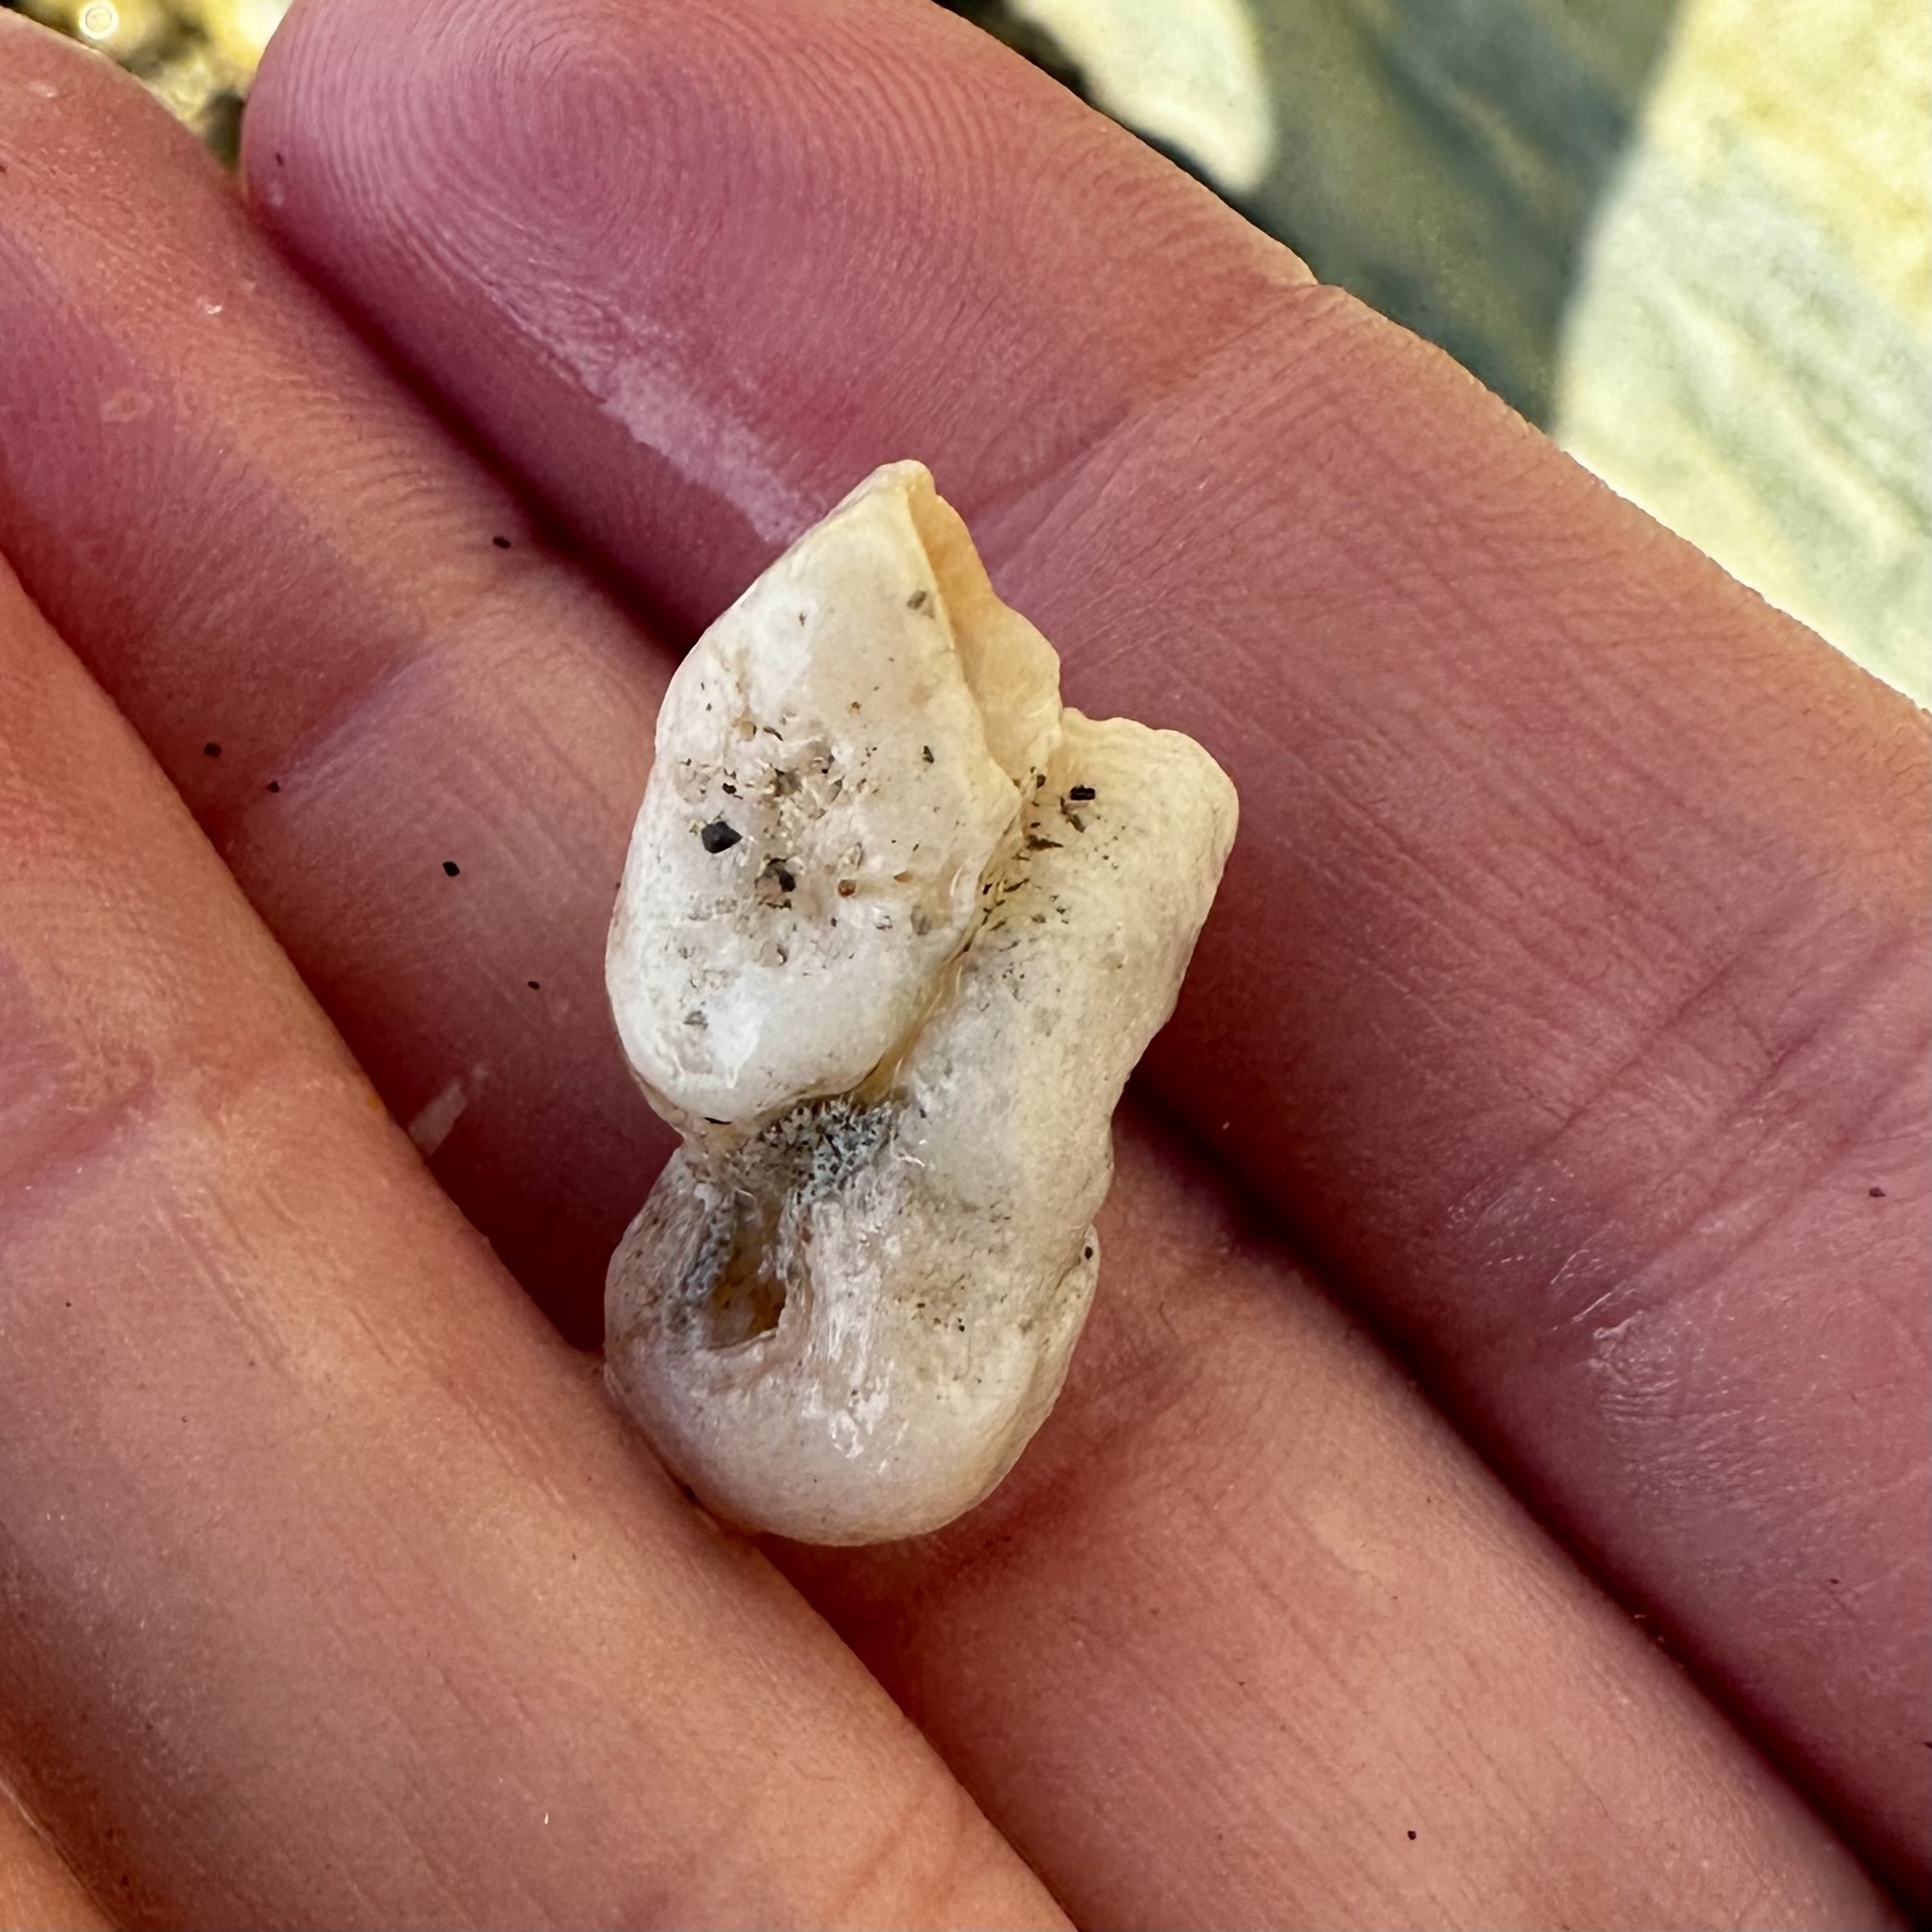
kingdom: Animalia
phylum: Mollusca
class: Gastropoda
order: Littorinimorpha
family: Vermetidae
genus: Thylacodes
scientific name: Thylacodes squamigerus
